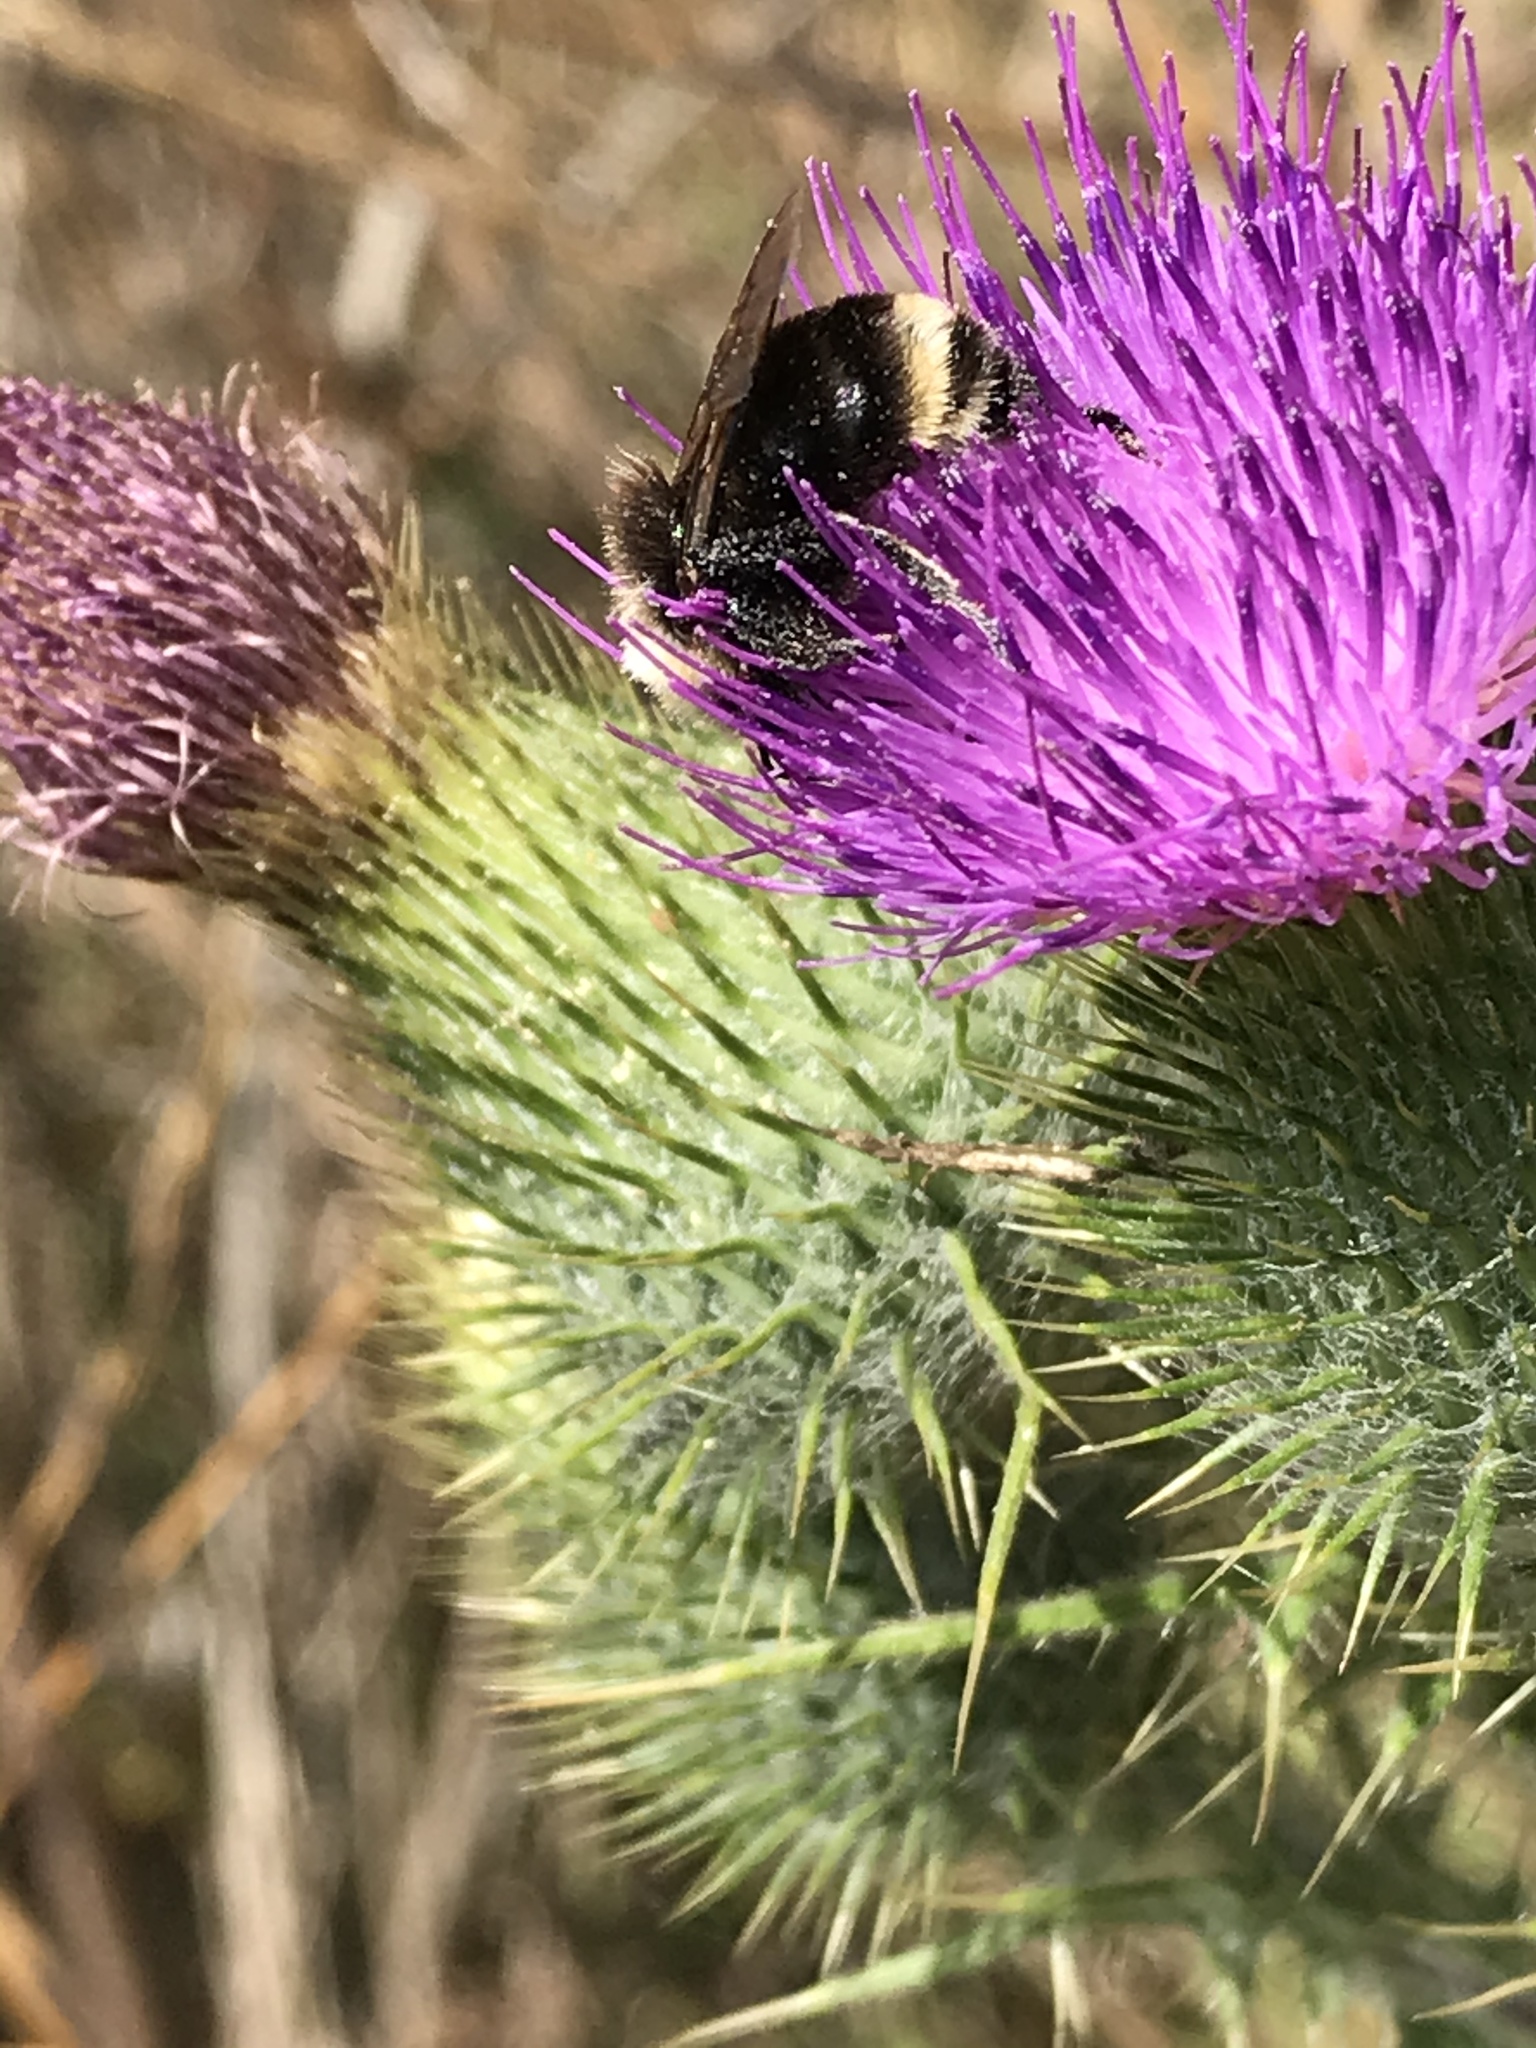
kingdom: Animalia
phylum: Arthropoda
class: Insecta
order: Hymenoptera
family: Apidae
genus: Bombus
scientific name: Bombus vosnesenskii
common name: Vosnesensky bumble bee
